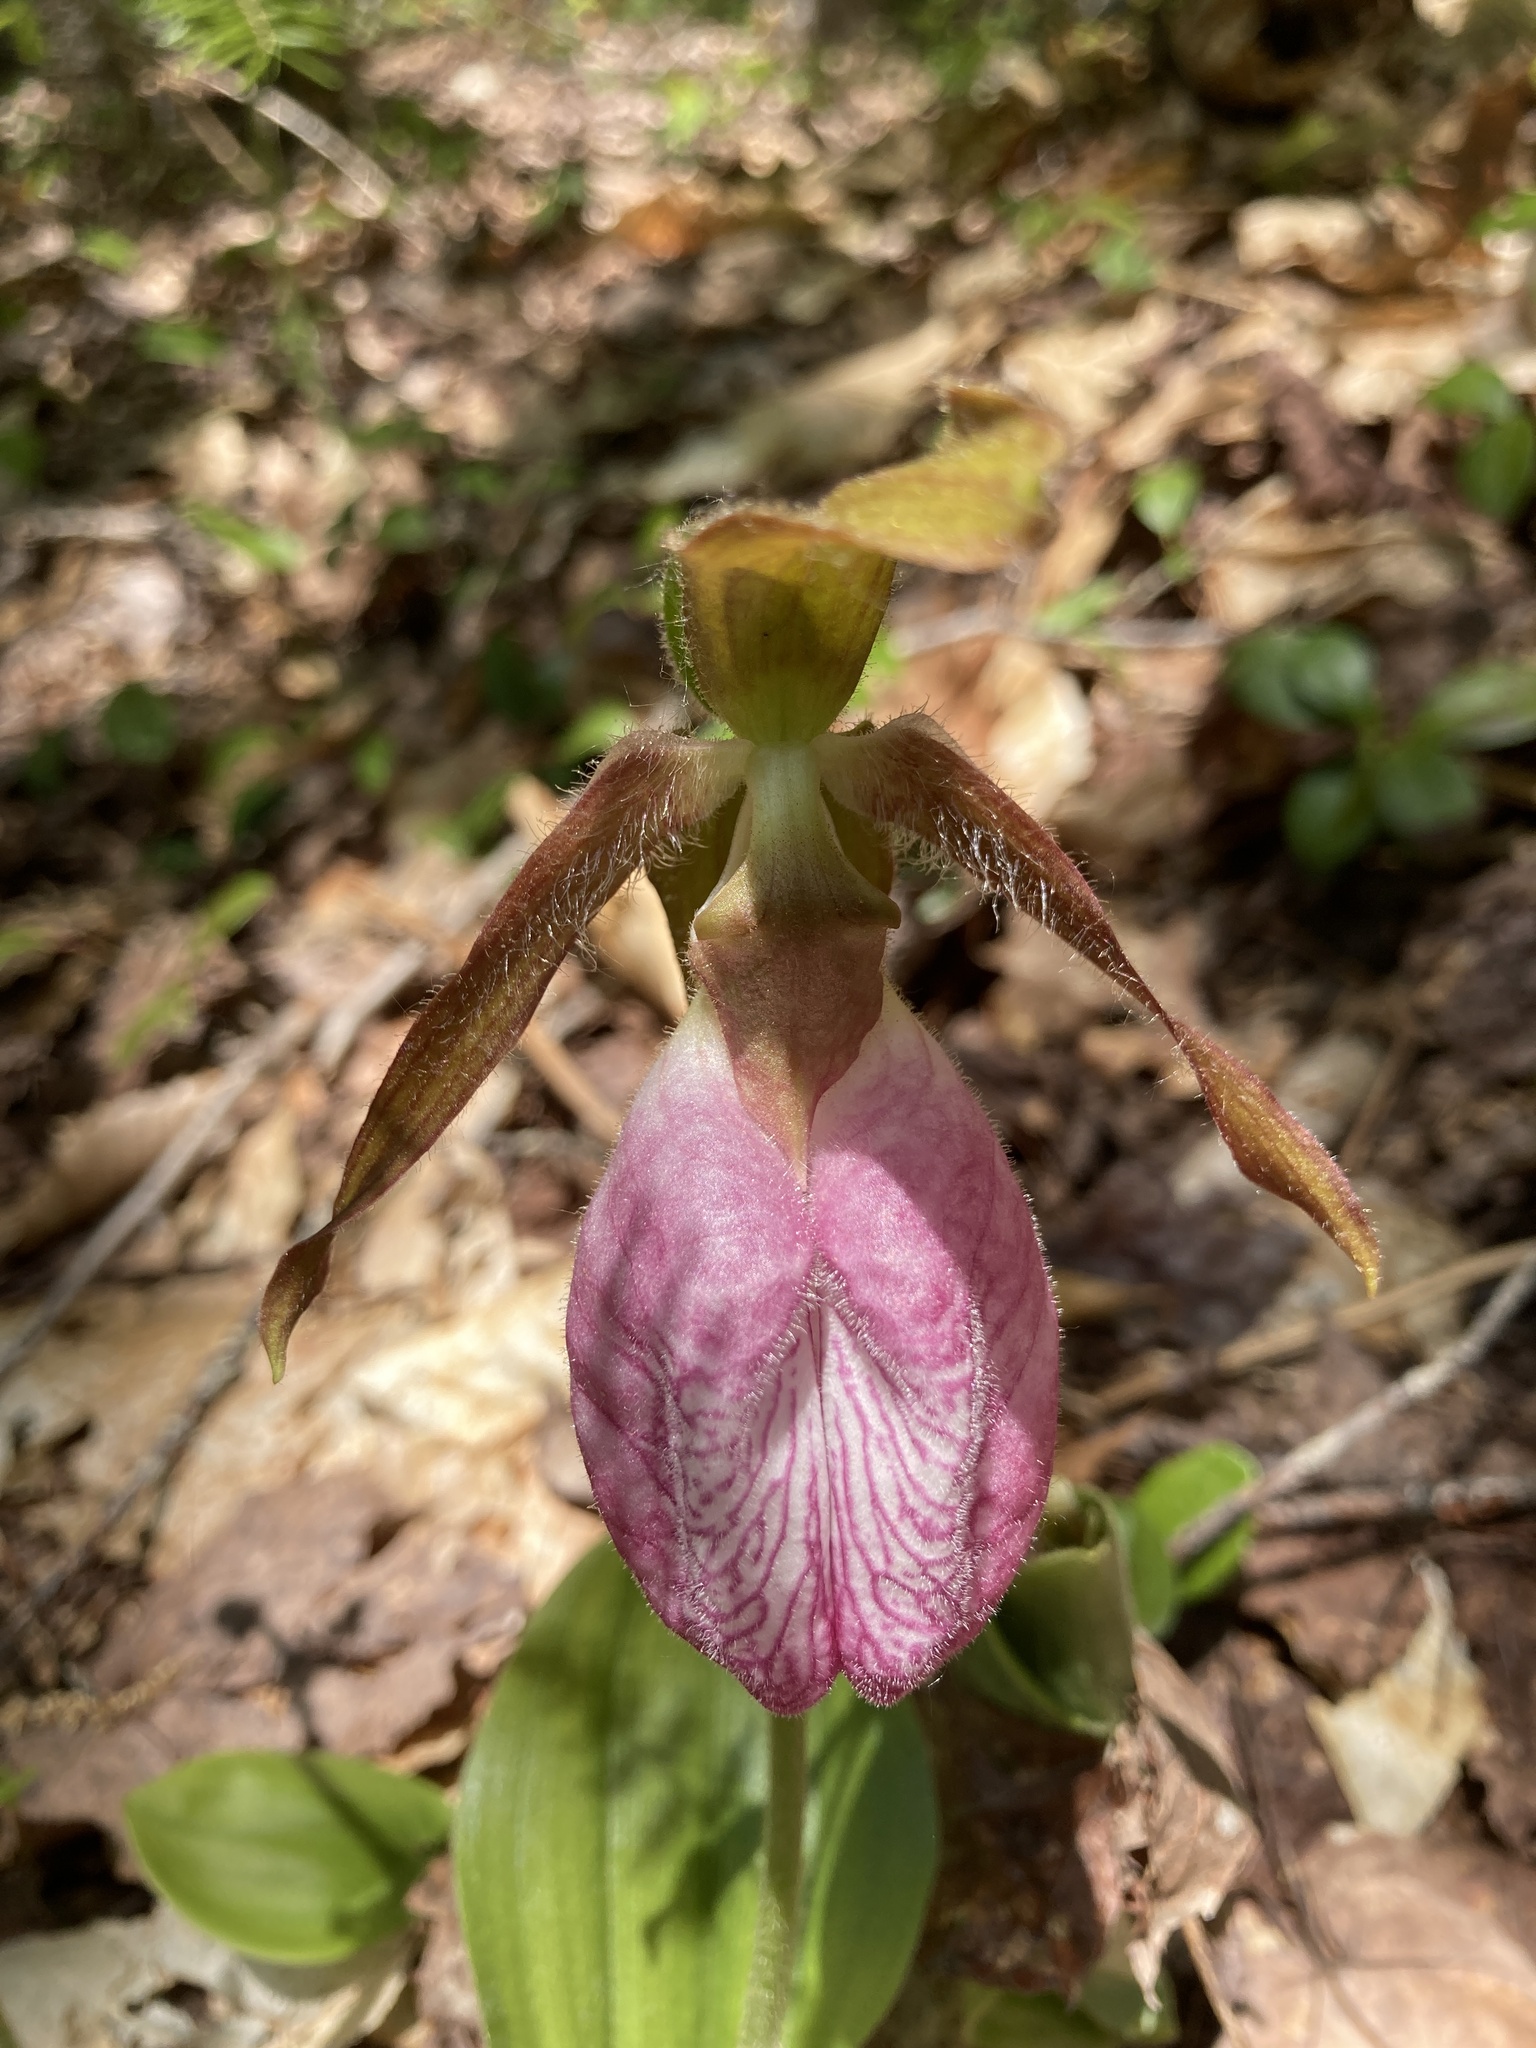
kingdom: Plantae
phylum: Tracheophyta
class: Liliopsida
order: Asparagales
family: Orchidaceae
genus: Cypripedium
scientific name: Cypripedium acaule
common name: Pink lady's-slipper
